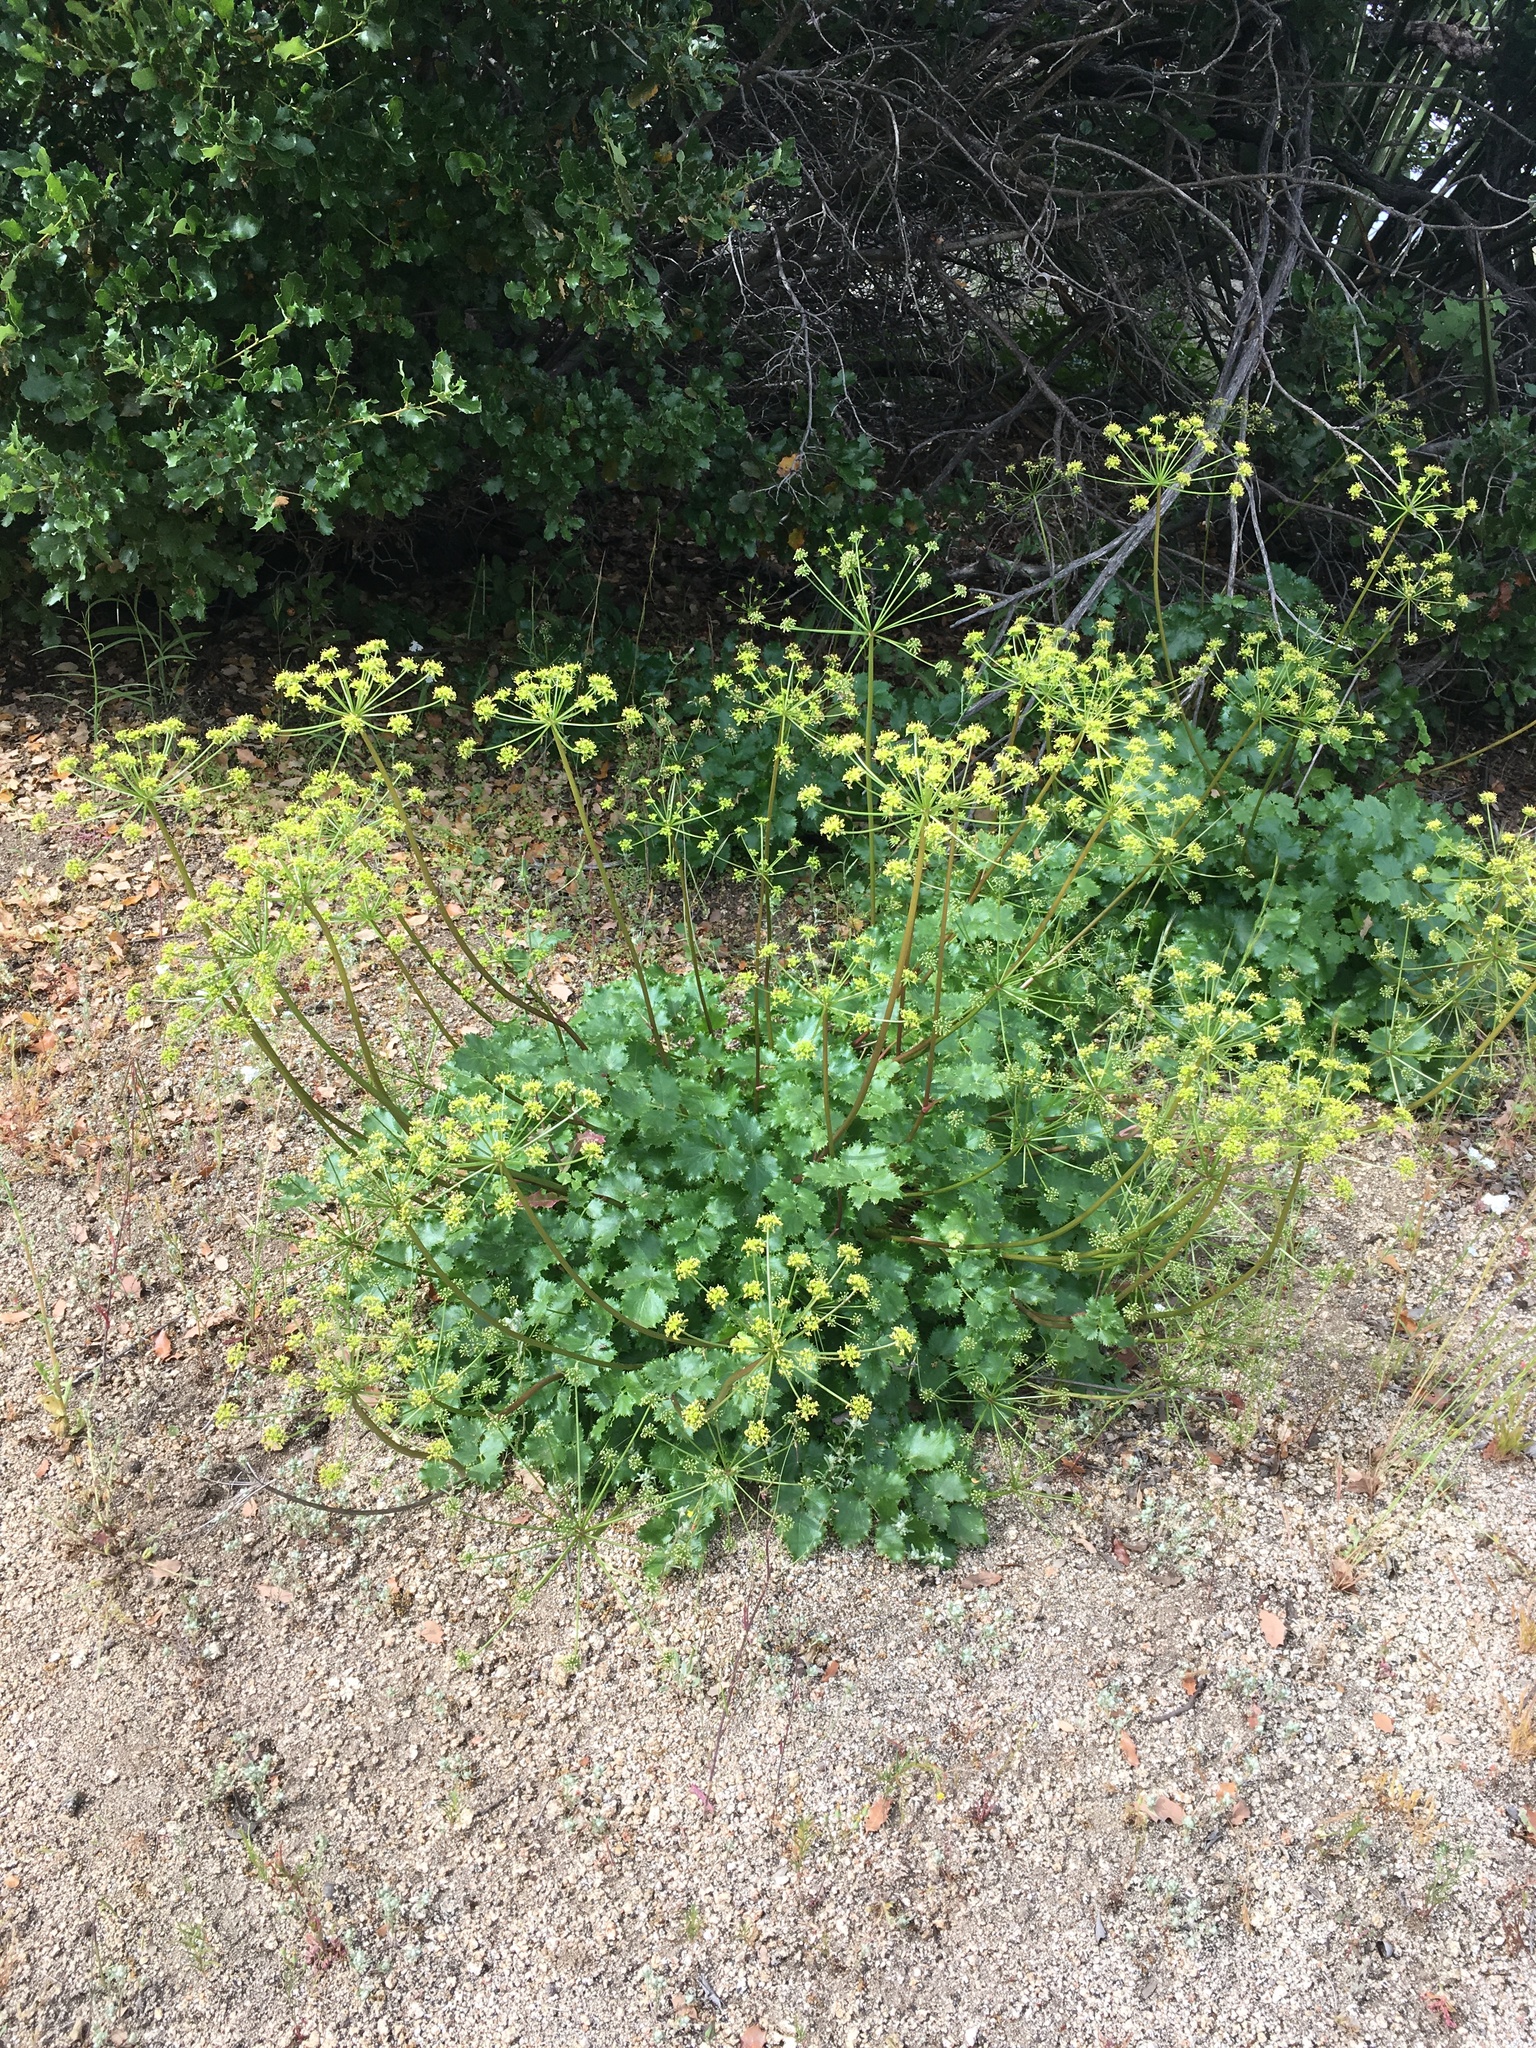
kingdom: Plantae
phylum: Tracheophyta
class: Magnoliopsida
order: Apiales
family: Apiaceae
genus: Tauschia
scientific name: Tauschia arguta
